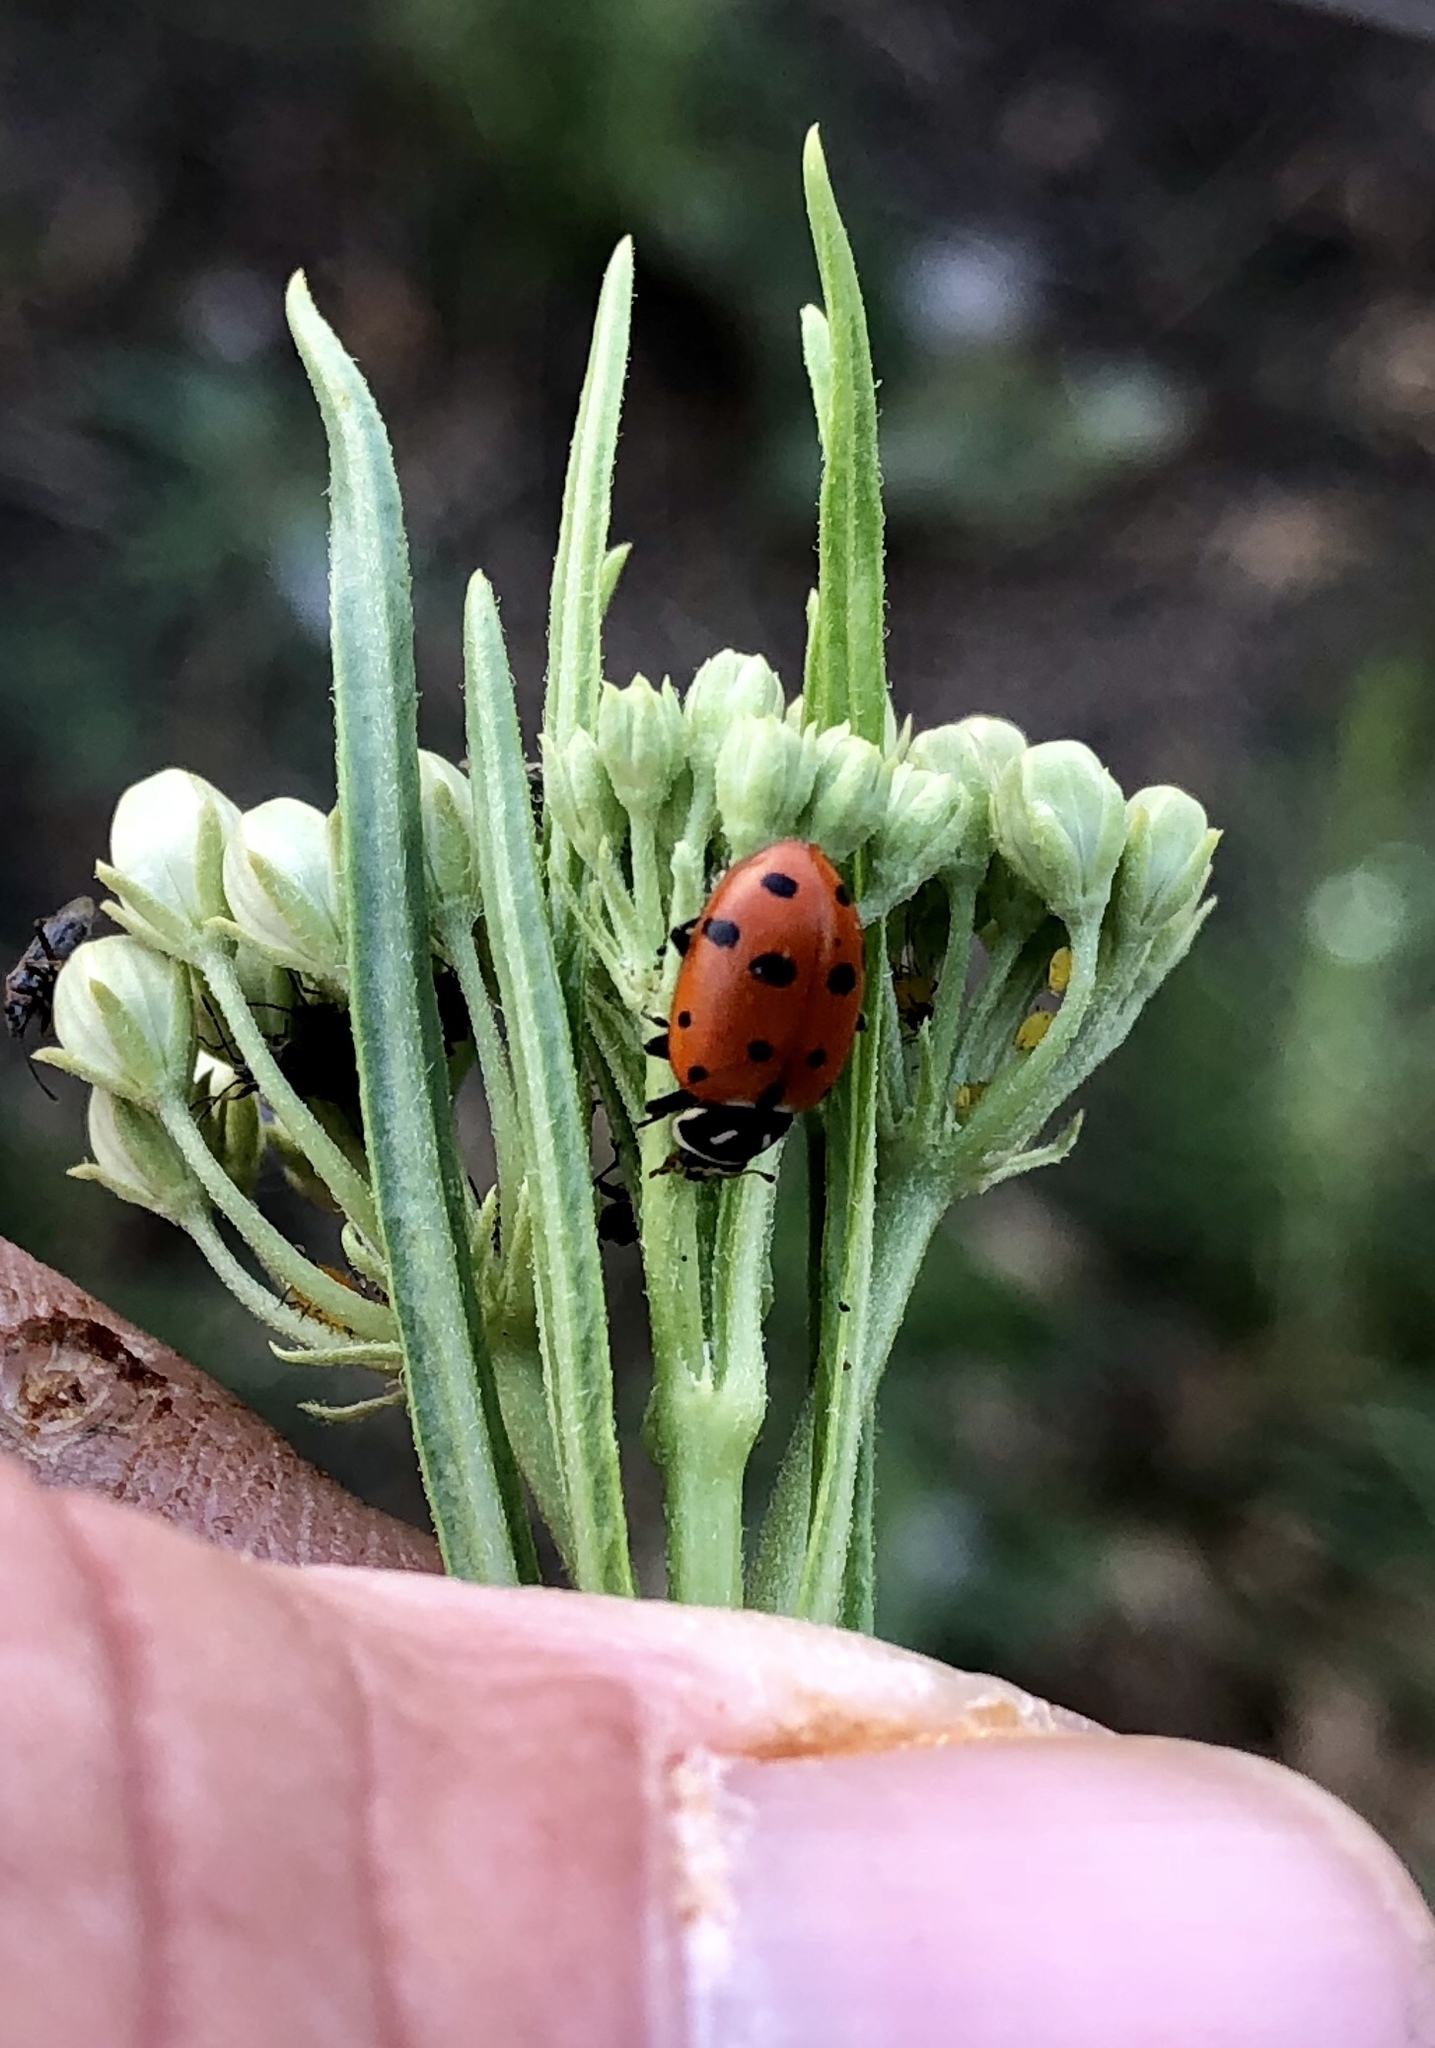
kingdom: Animalia
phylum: Arthropoda
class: Insecta
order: Coleoptera
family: Coccinellidae
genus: Hippodamia
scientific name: Hippodamia convergens
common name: Convergent lady beetle
